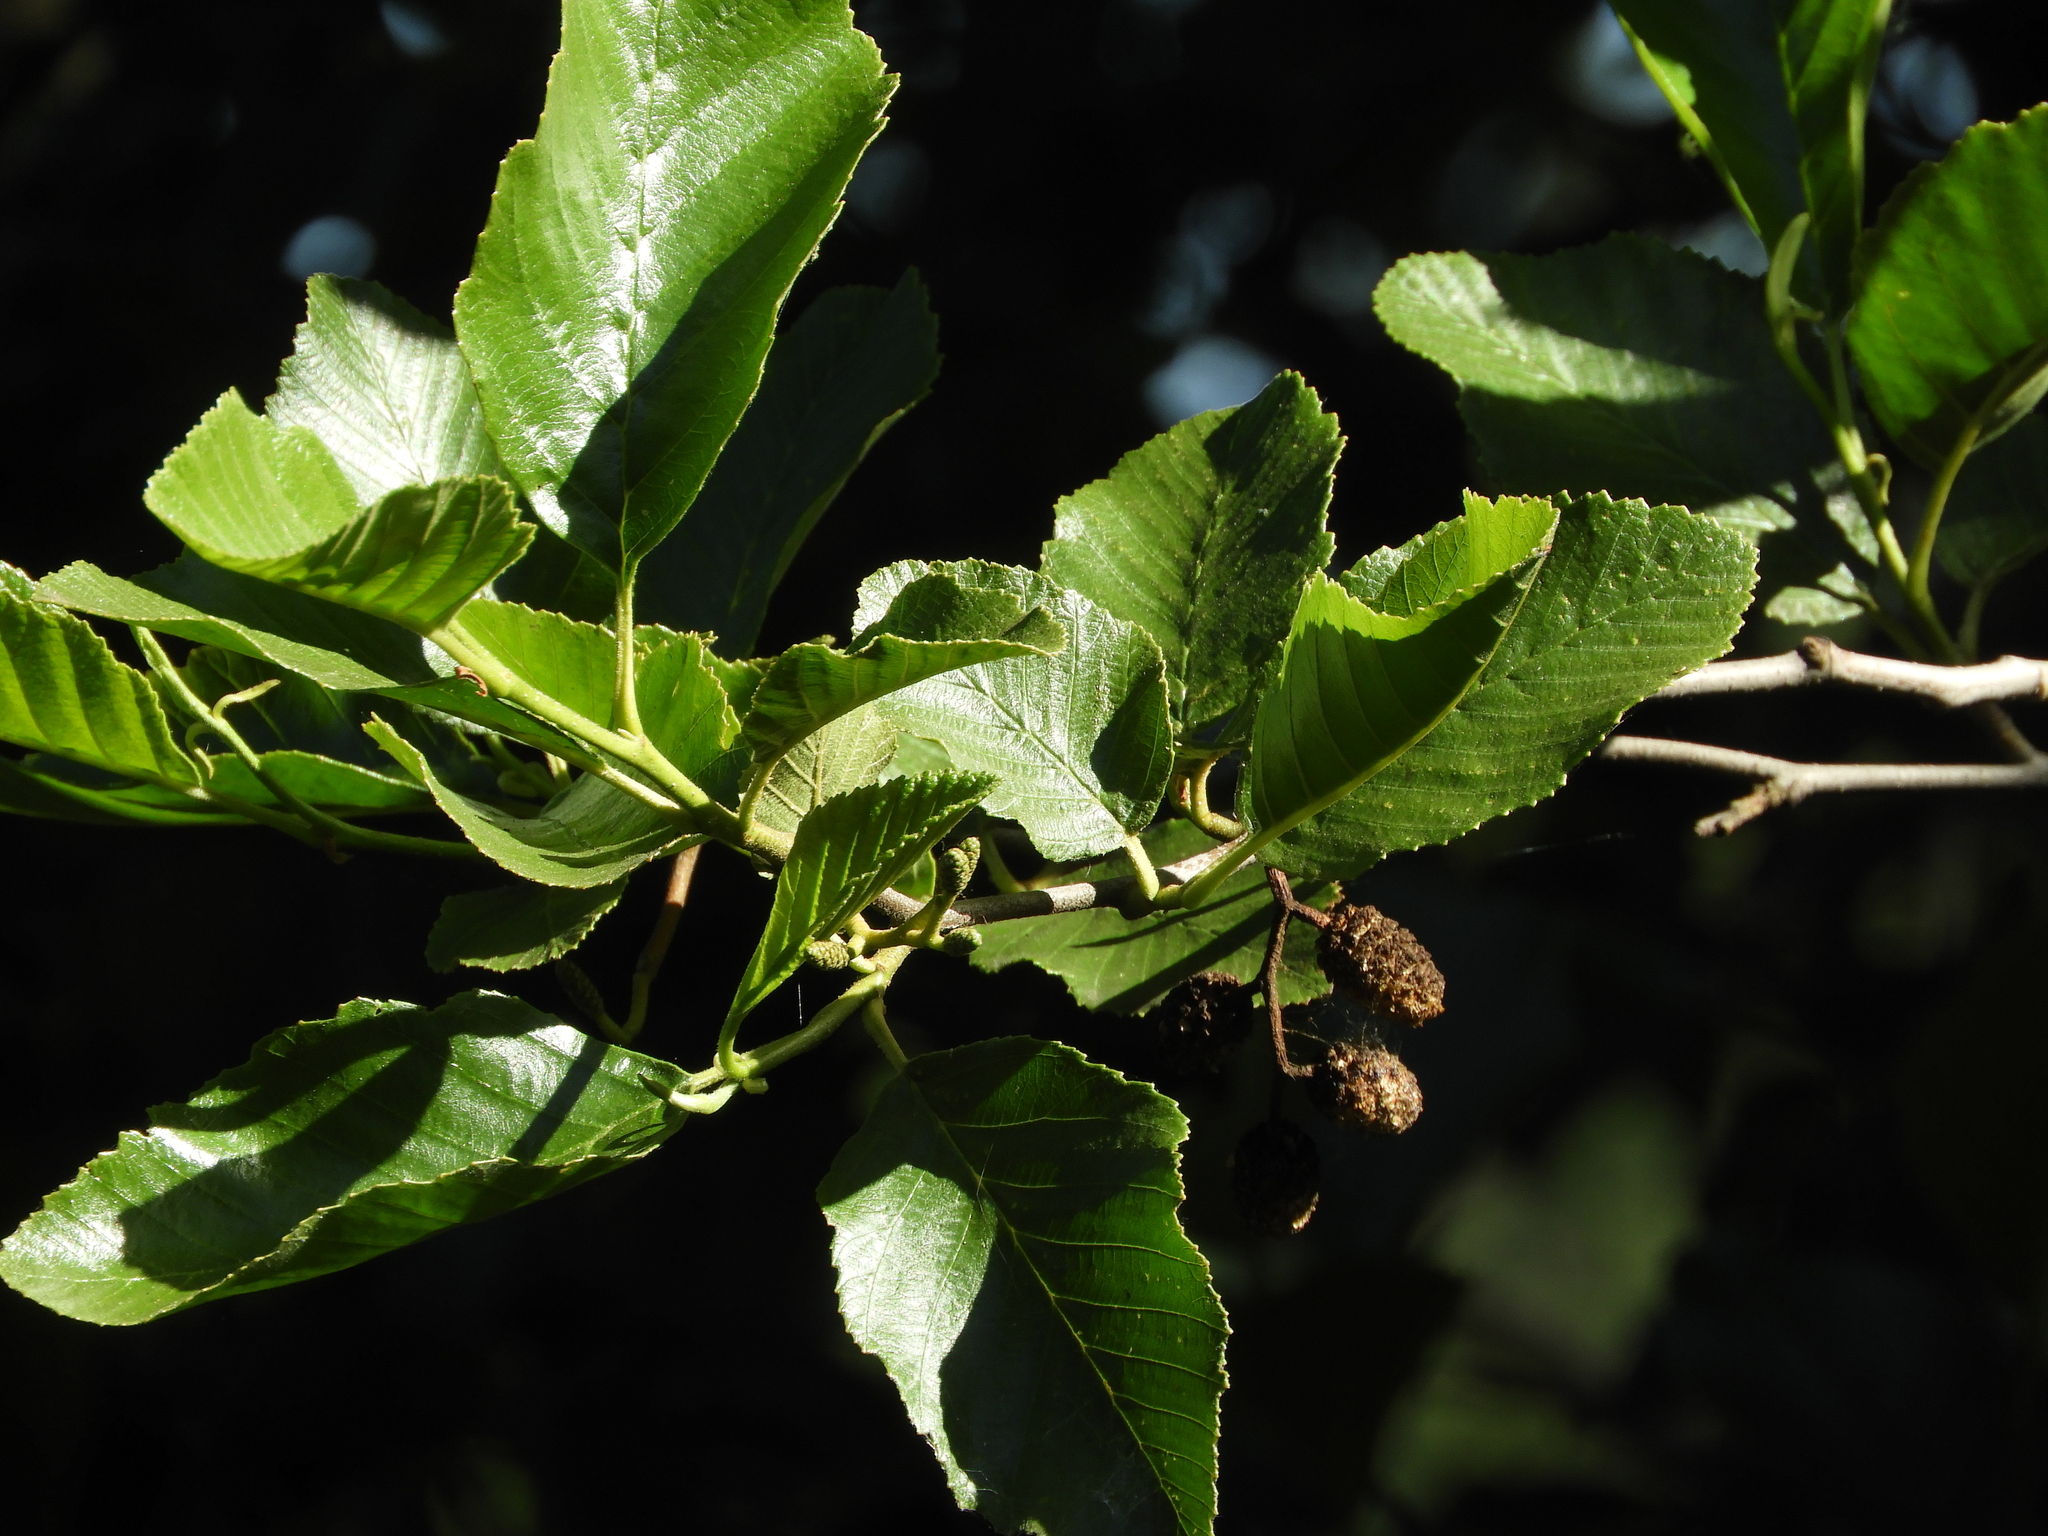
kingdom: Plantae
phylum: Tracheophyta
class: Magnoliopsida
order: Fagales
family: Betulaceae
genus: Alnus
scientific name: Alnus rhombifolia
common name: California alder
